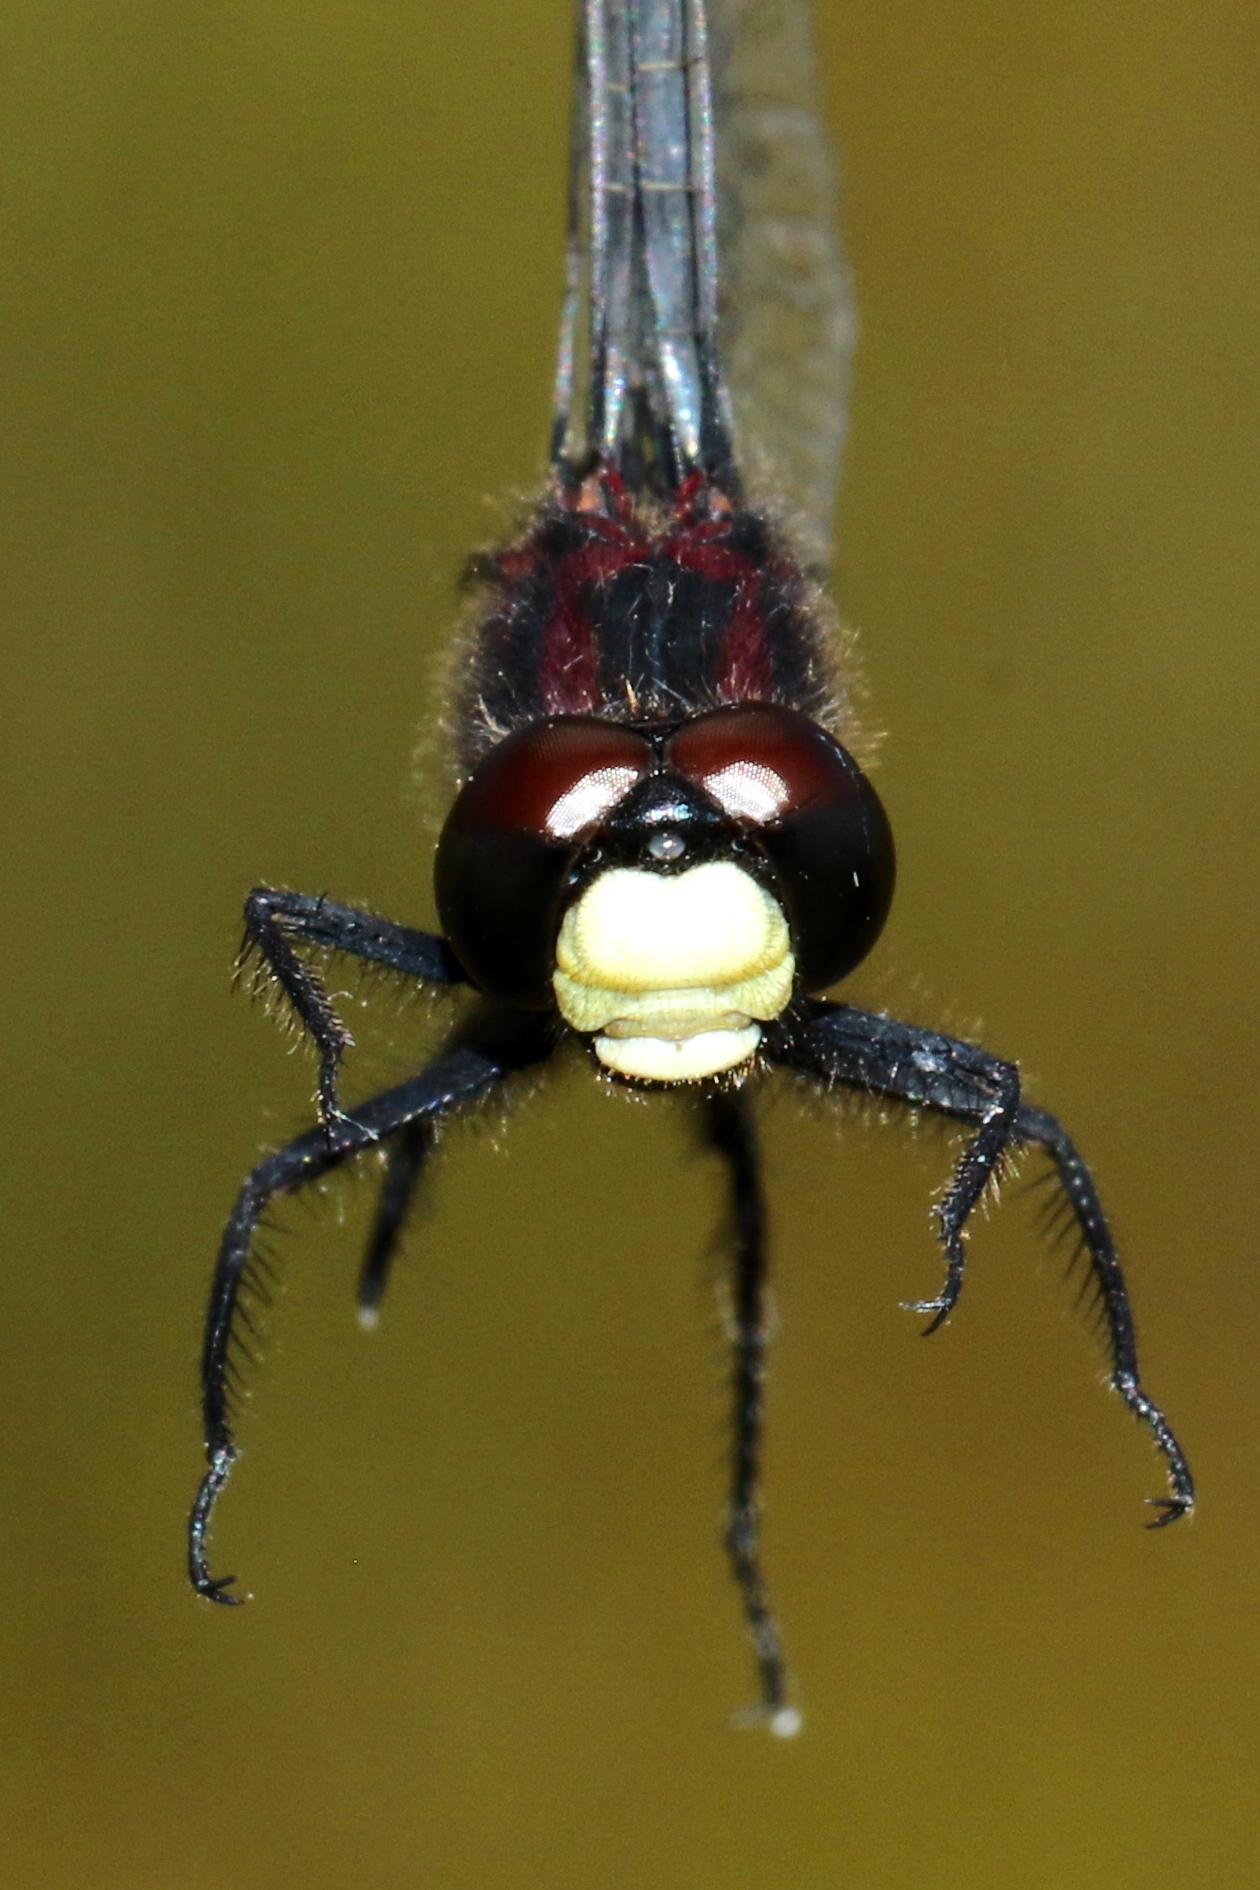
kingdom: Animalia
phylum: Arthropoda
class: Insecta
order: Odonata
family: Libellulidae
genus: Leucorrhinia
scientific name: Leucorrhinia patricia
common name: Canada whiteface
